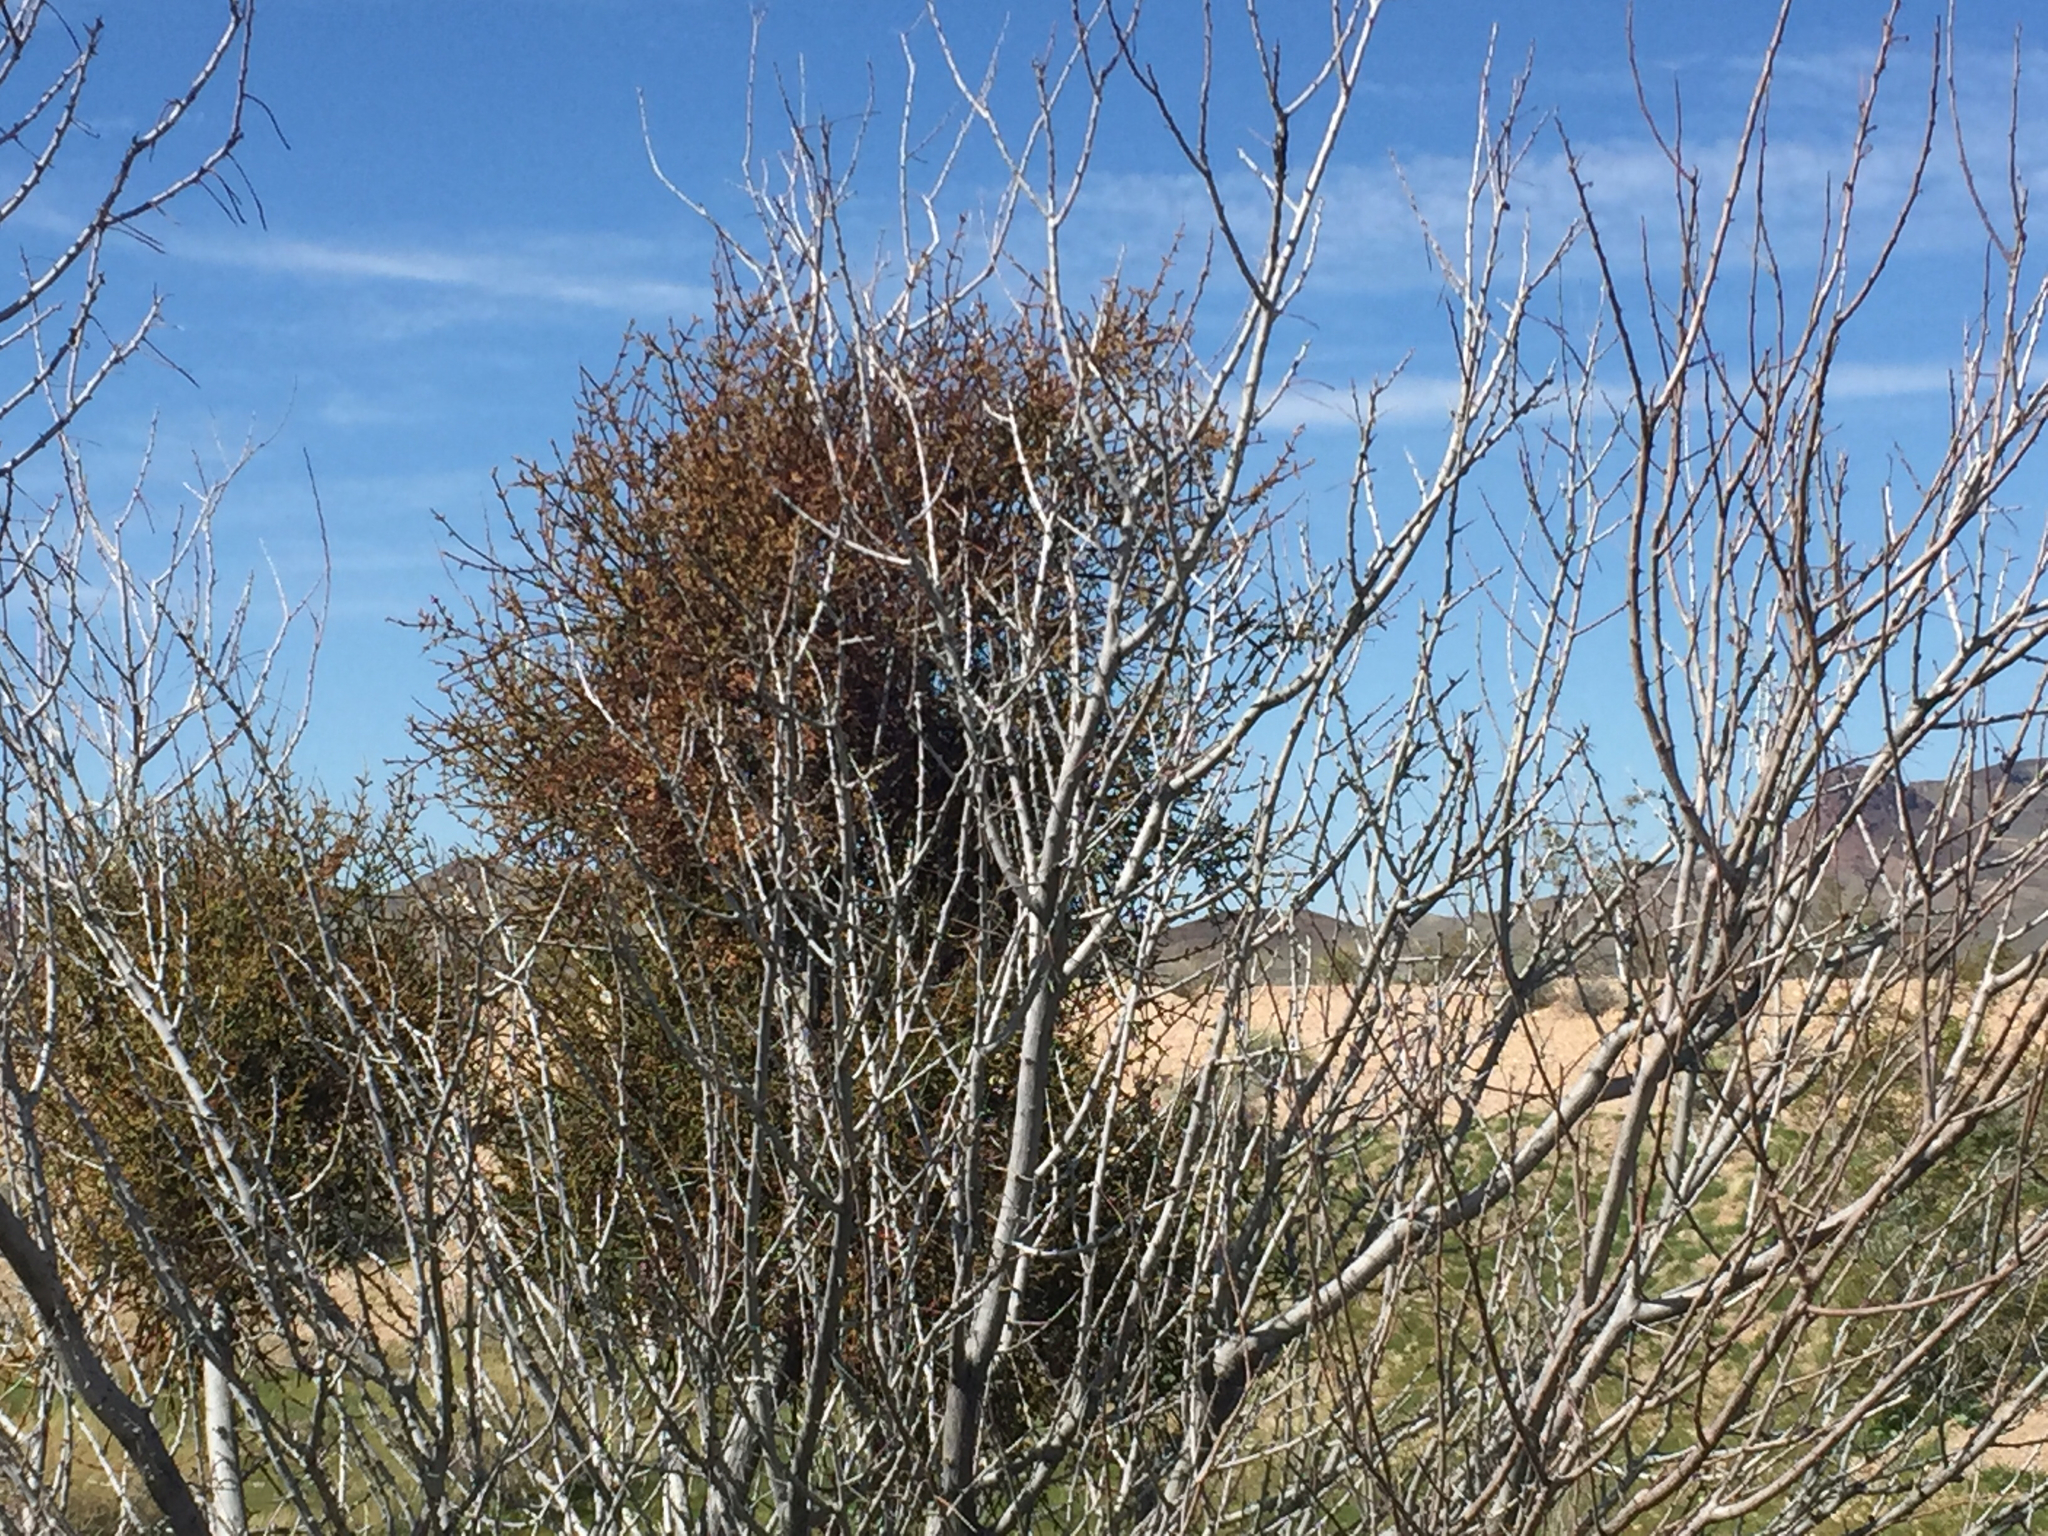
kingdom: Plantae
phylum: Tracheophyta
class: Magnoliopsida
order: Santalales
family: Viscaceae
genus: Phoradendron
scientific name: Phoradendron californicum
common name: Acacia mistletoe
